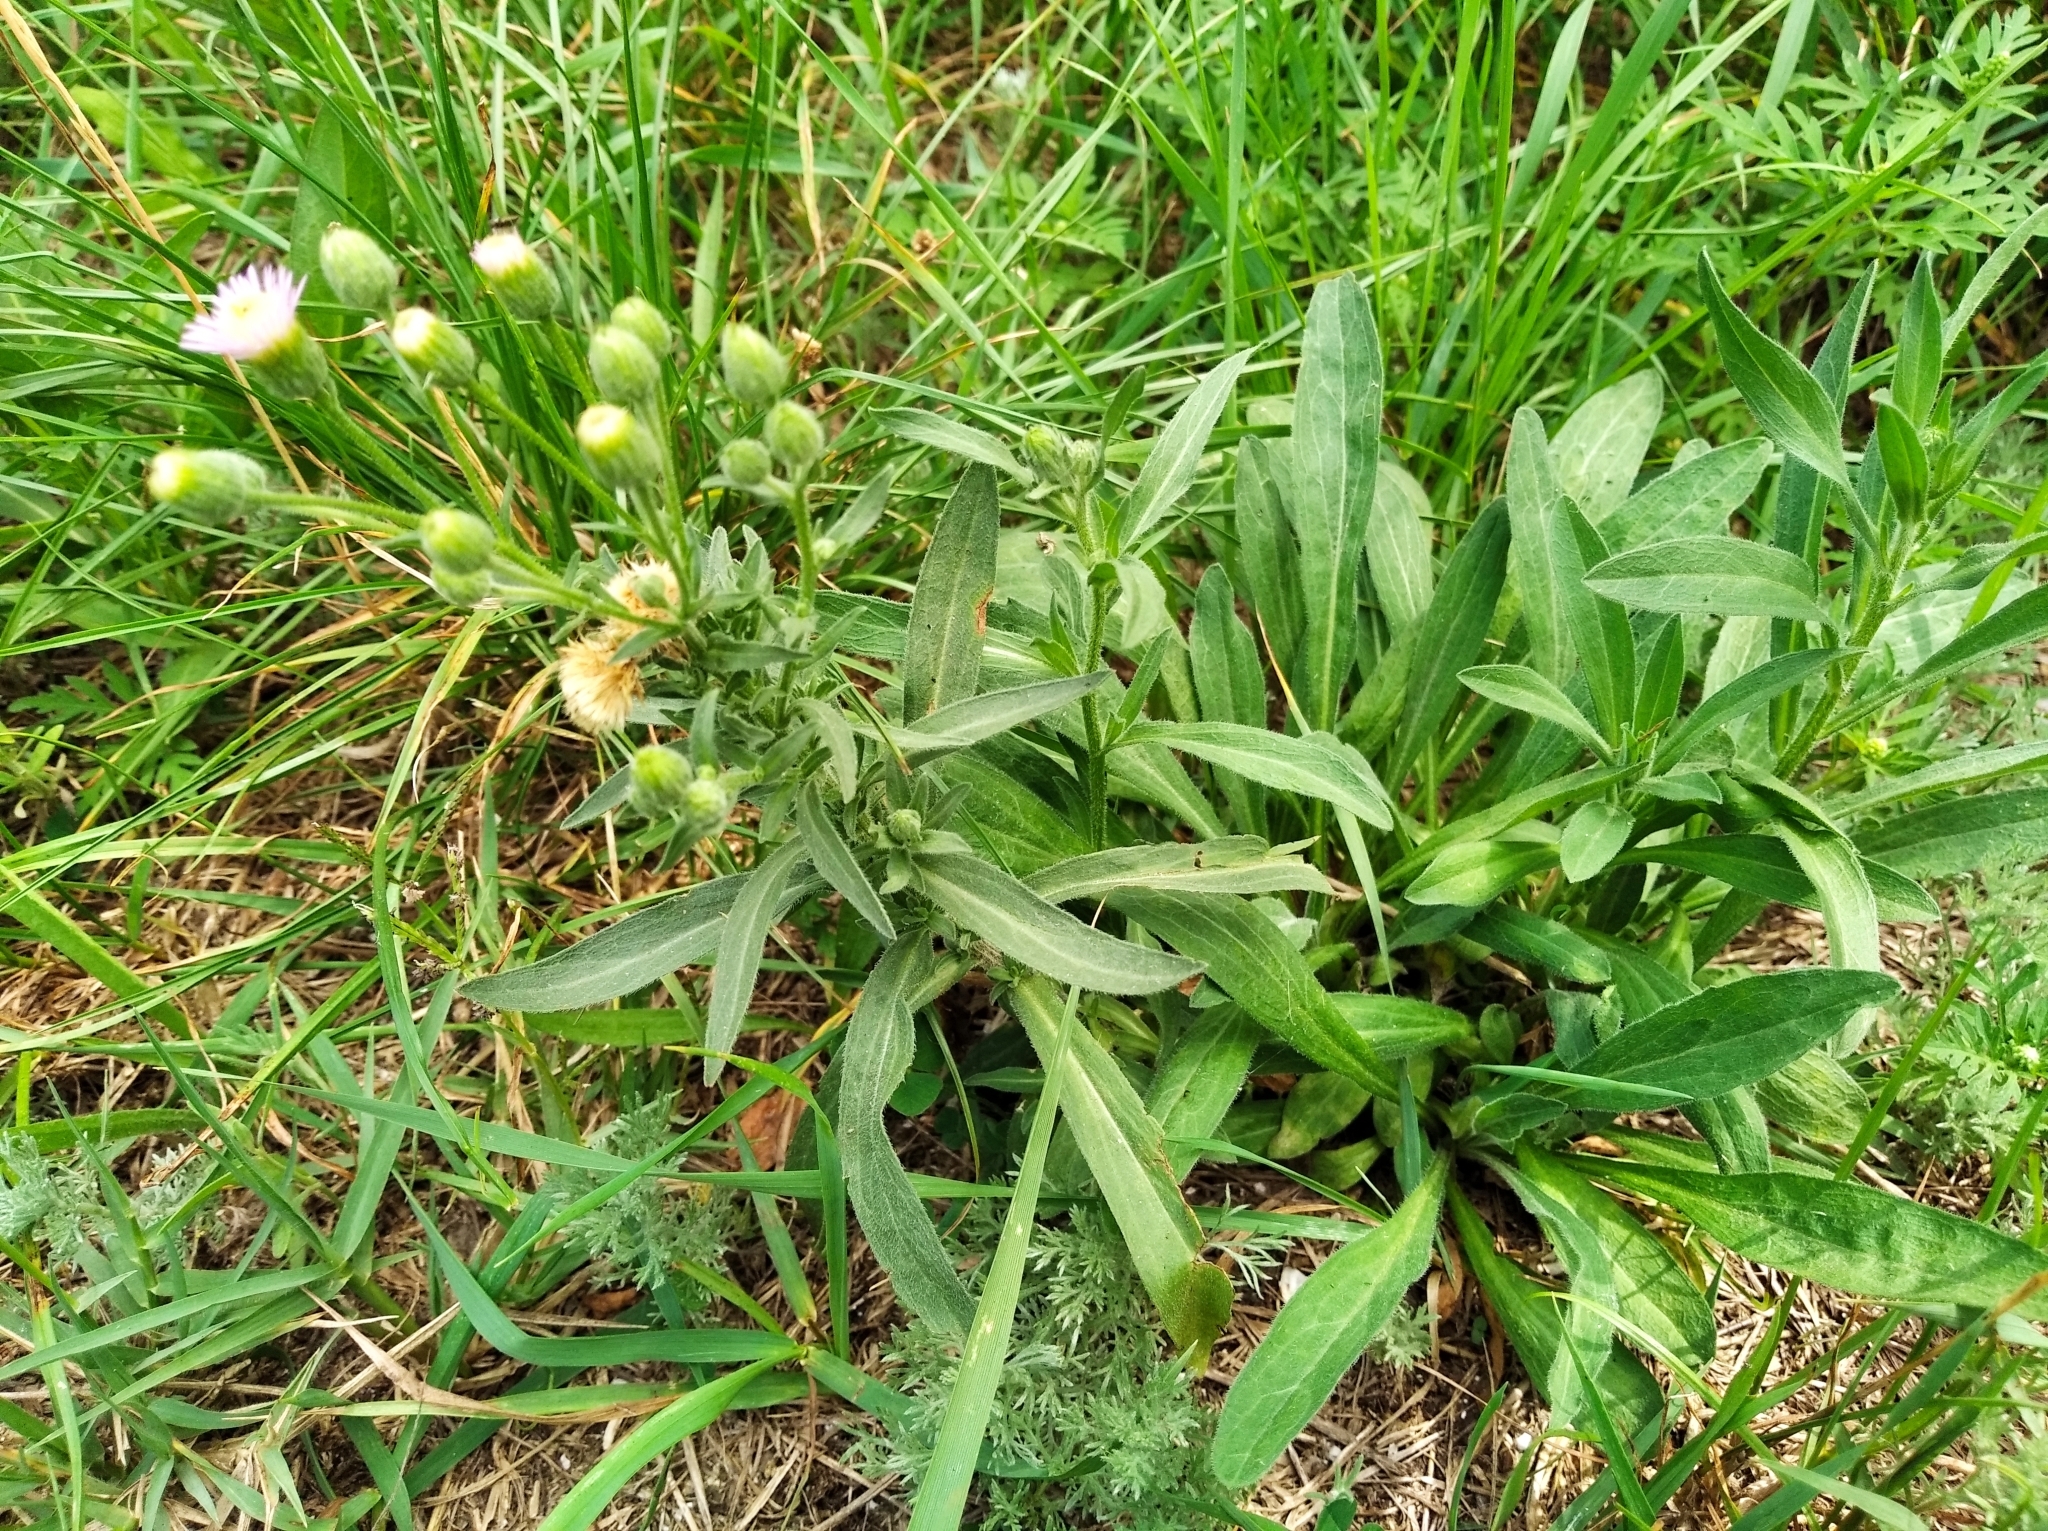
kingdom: Plantae
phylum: Tracheophyta
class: Magnoliopsida
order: Asterales
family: Asteraceae
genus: Erigeron
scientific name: Erigeron acris
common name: Blue fleabane
